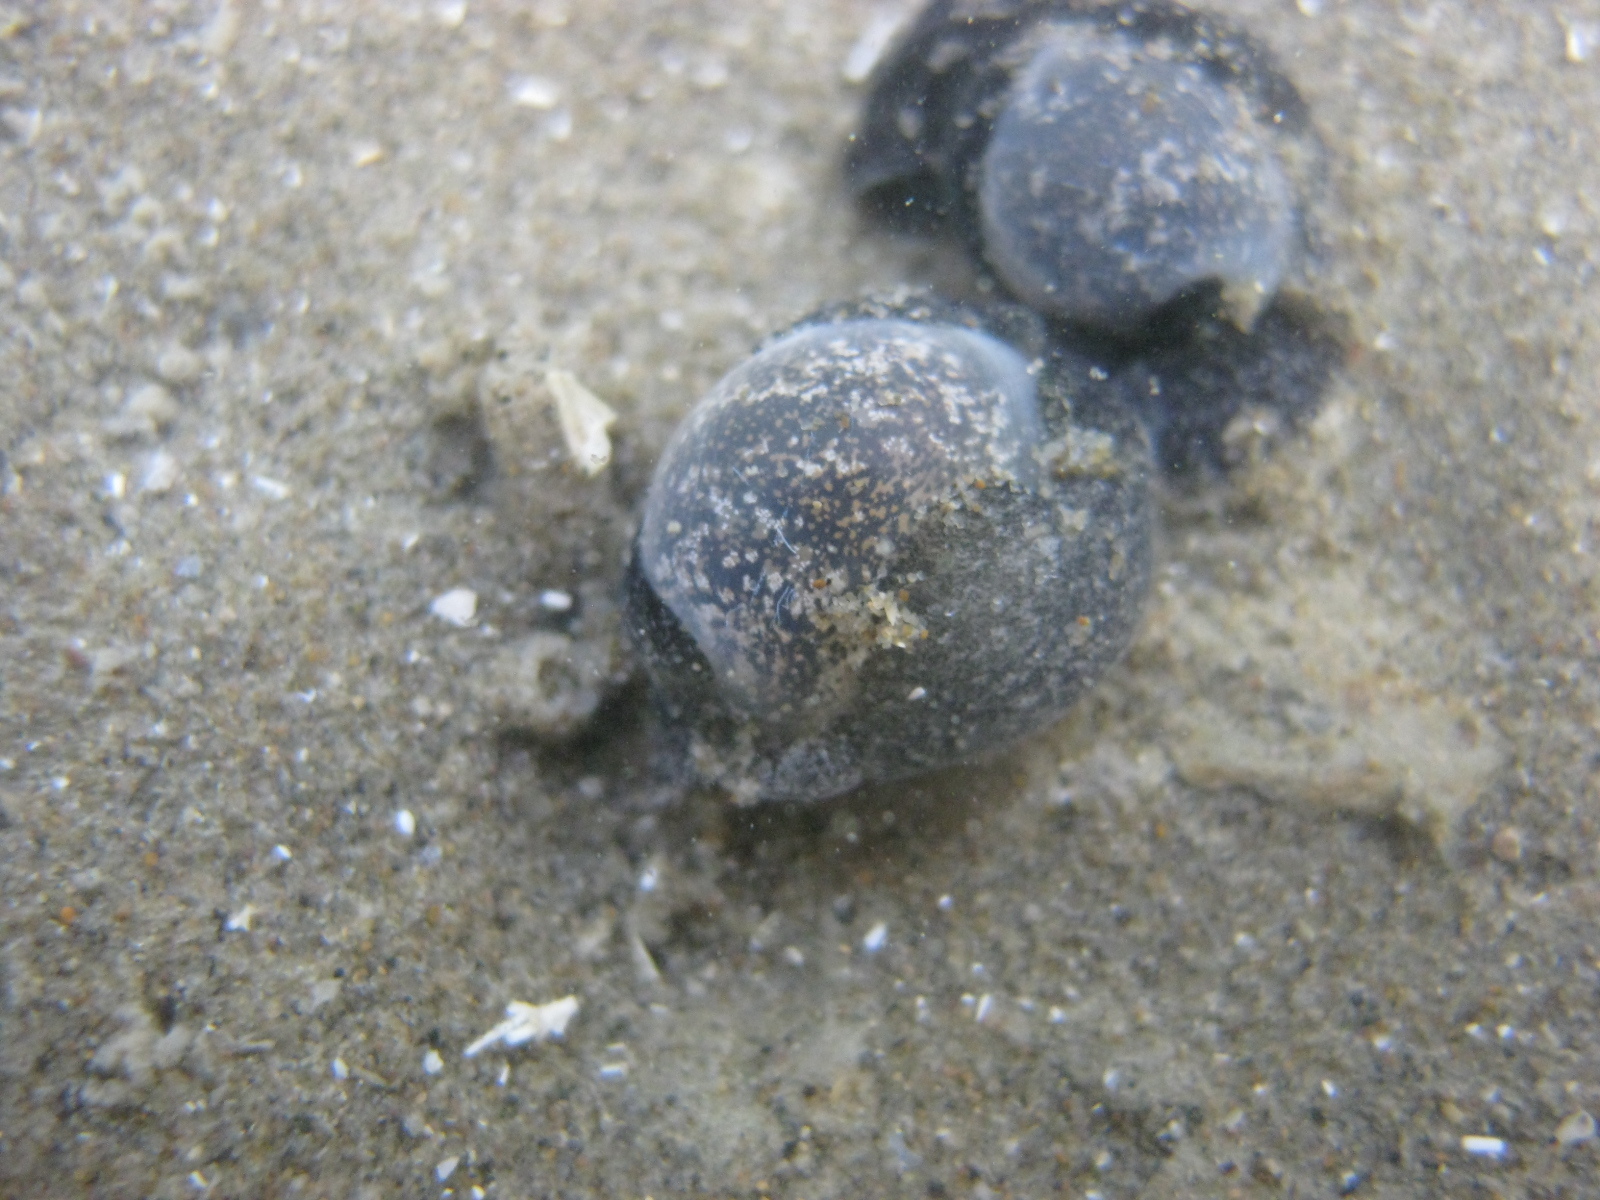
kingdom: Animalia
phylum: Mollusca
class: Gastropoda
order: Cephalaspidea
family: Haminoeidae
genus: Papawera
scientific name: Papawera zelandiae
